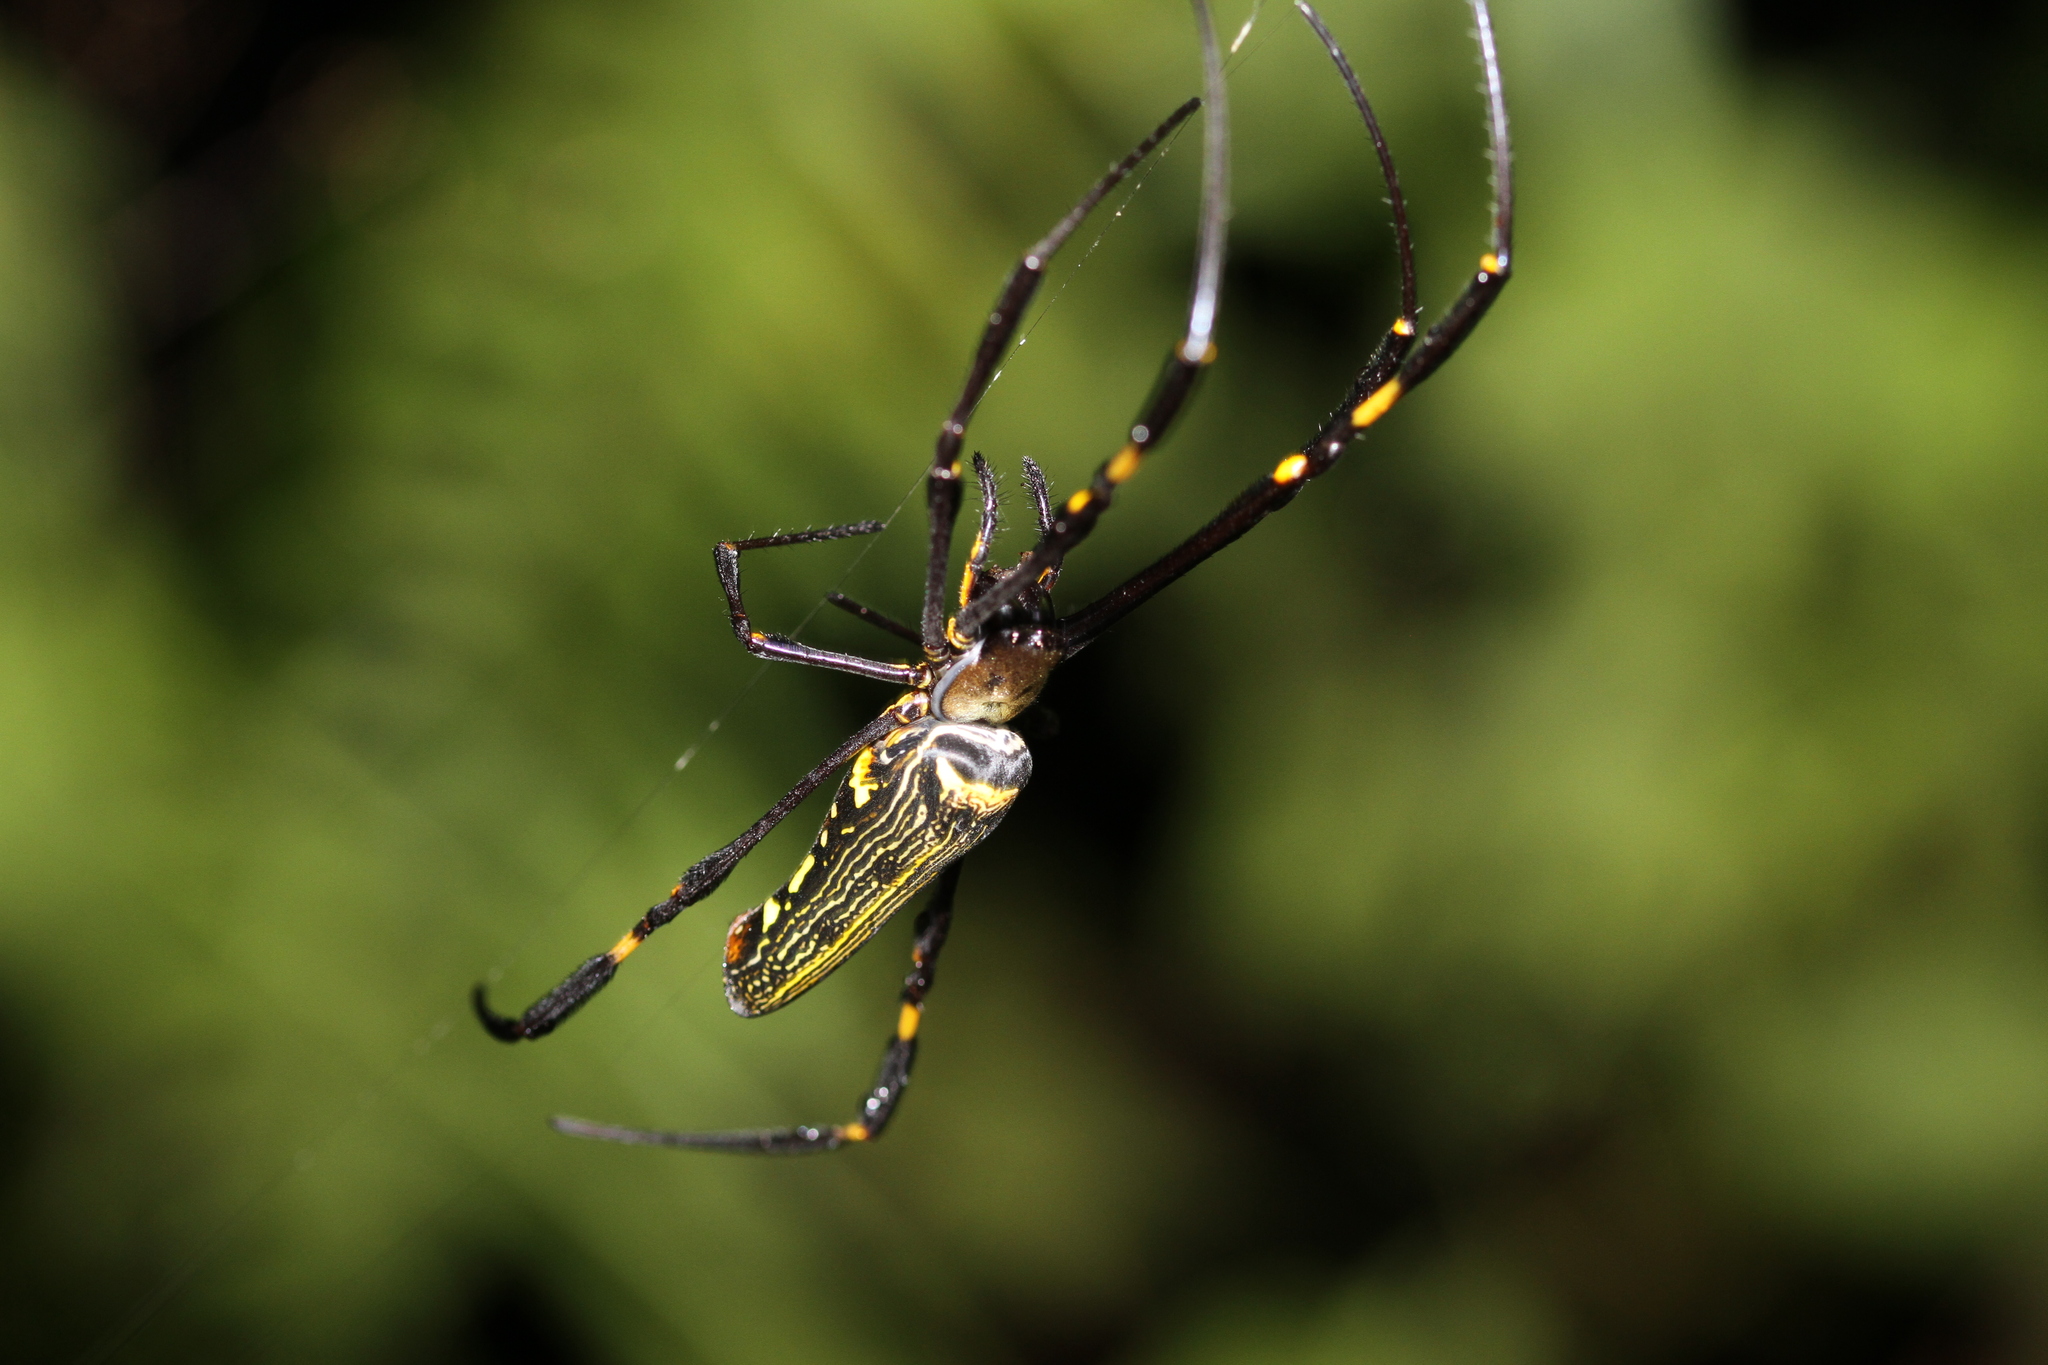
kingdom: Animalia
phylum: Arthropoda
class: Arachnida
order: Araneae
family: Araneidae
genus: Nephila
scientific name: Nephila pilipes
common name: Giant golden orb weaver
